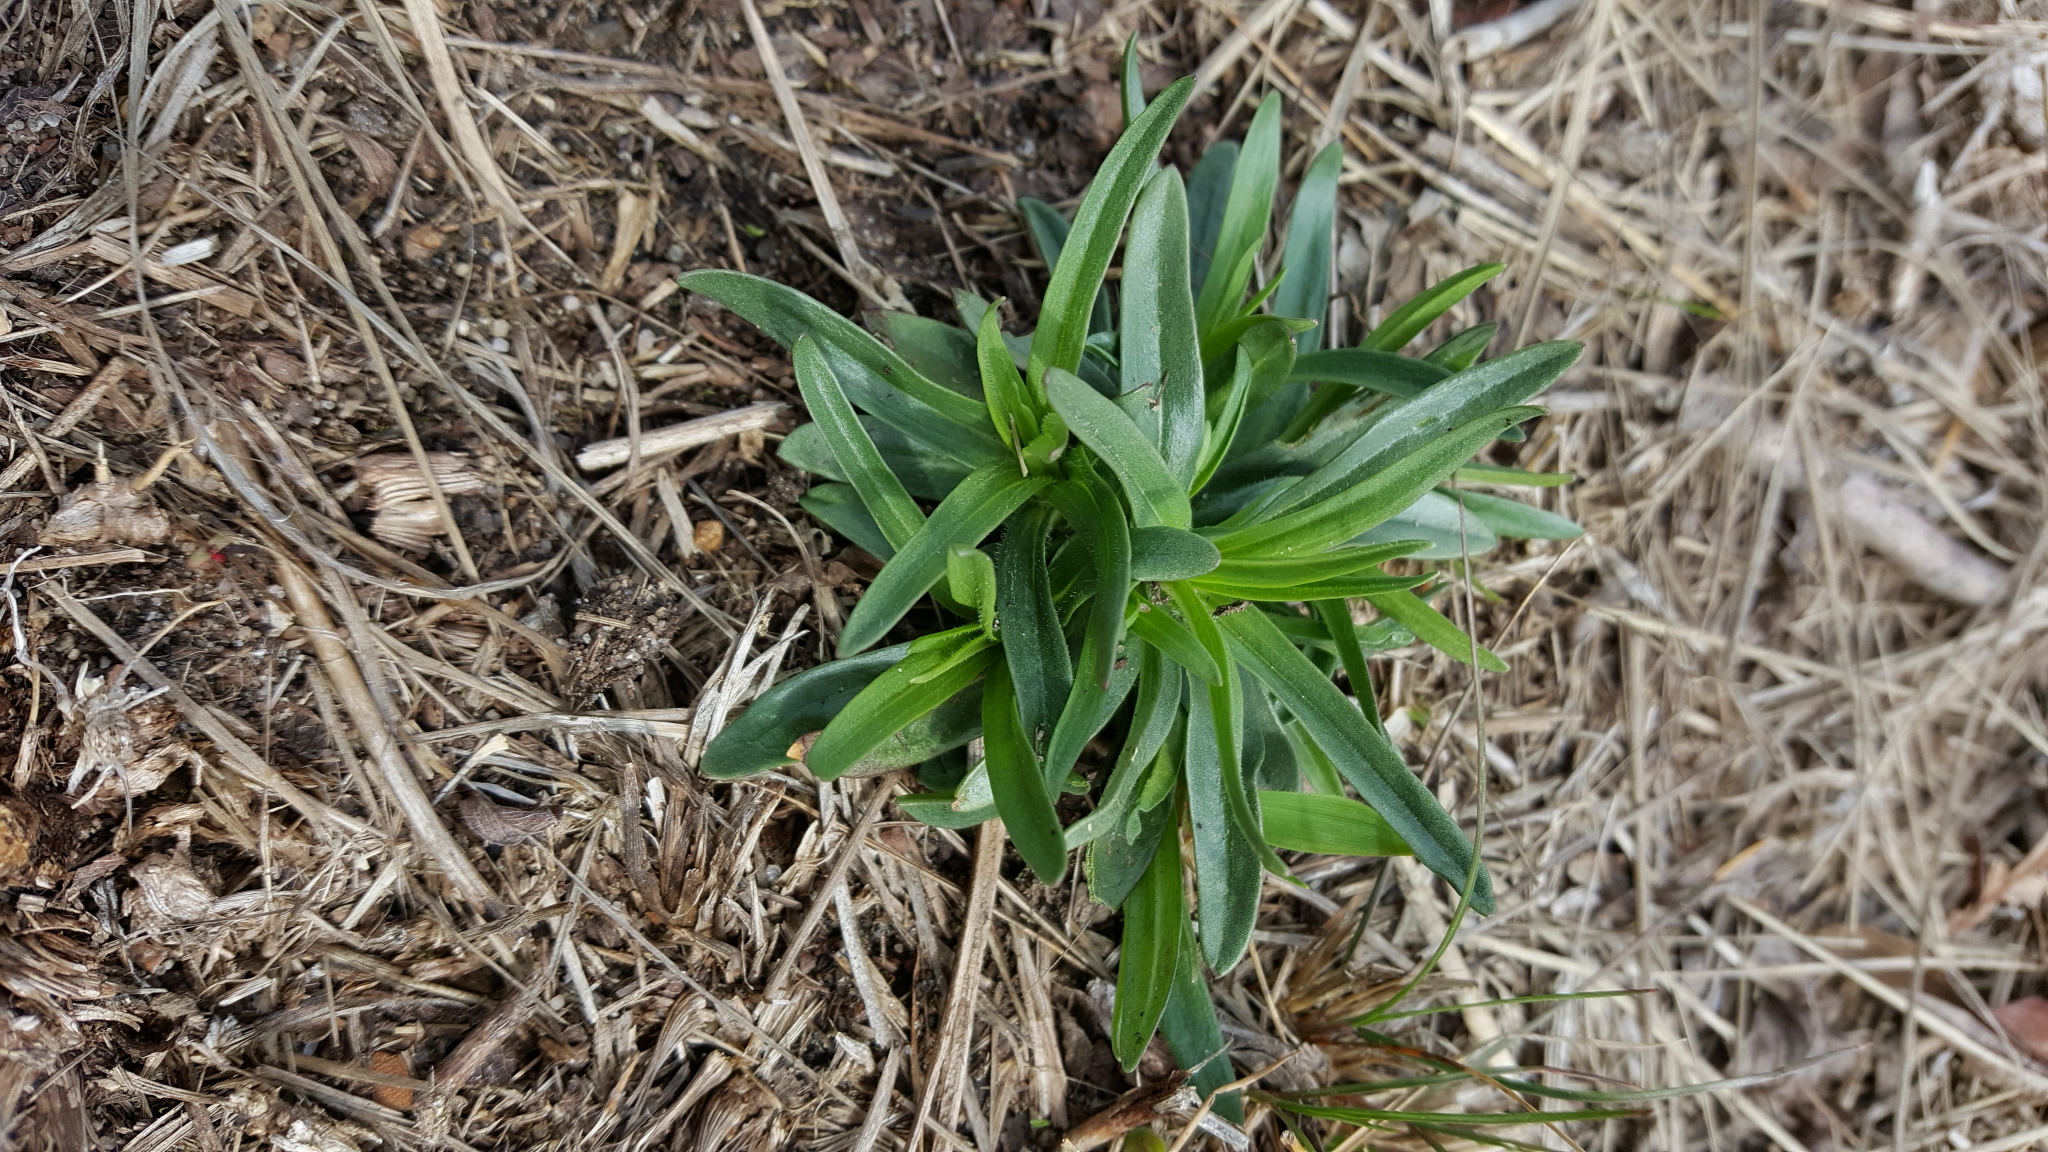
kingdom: Plantae
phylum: Tracheophyta
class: Magnoliopsida
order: Caryophyllales
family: Caryophyllaceae
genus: Dianthus
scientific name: Dianthus armeria
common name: Deptford pink
